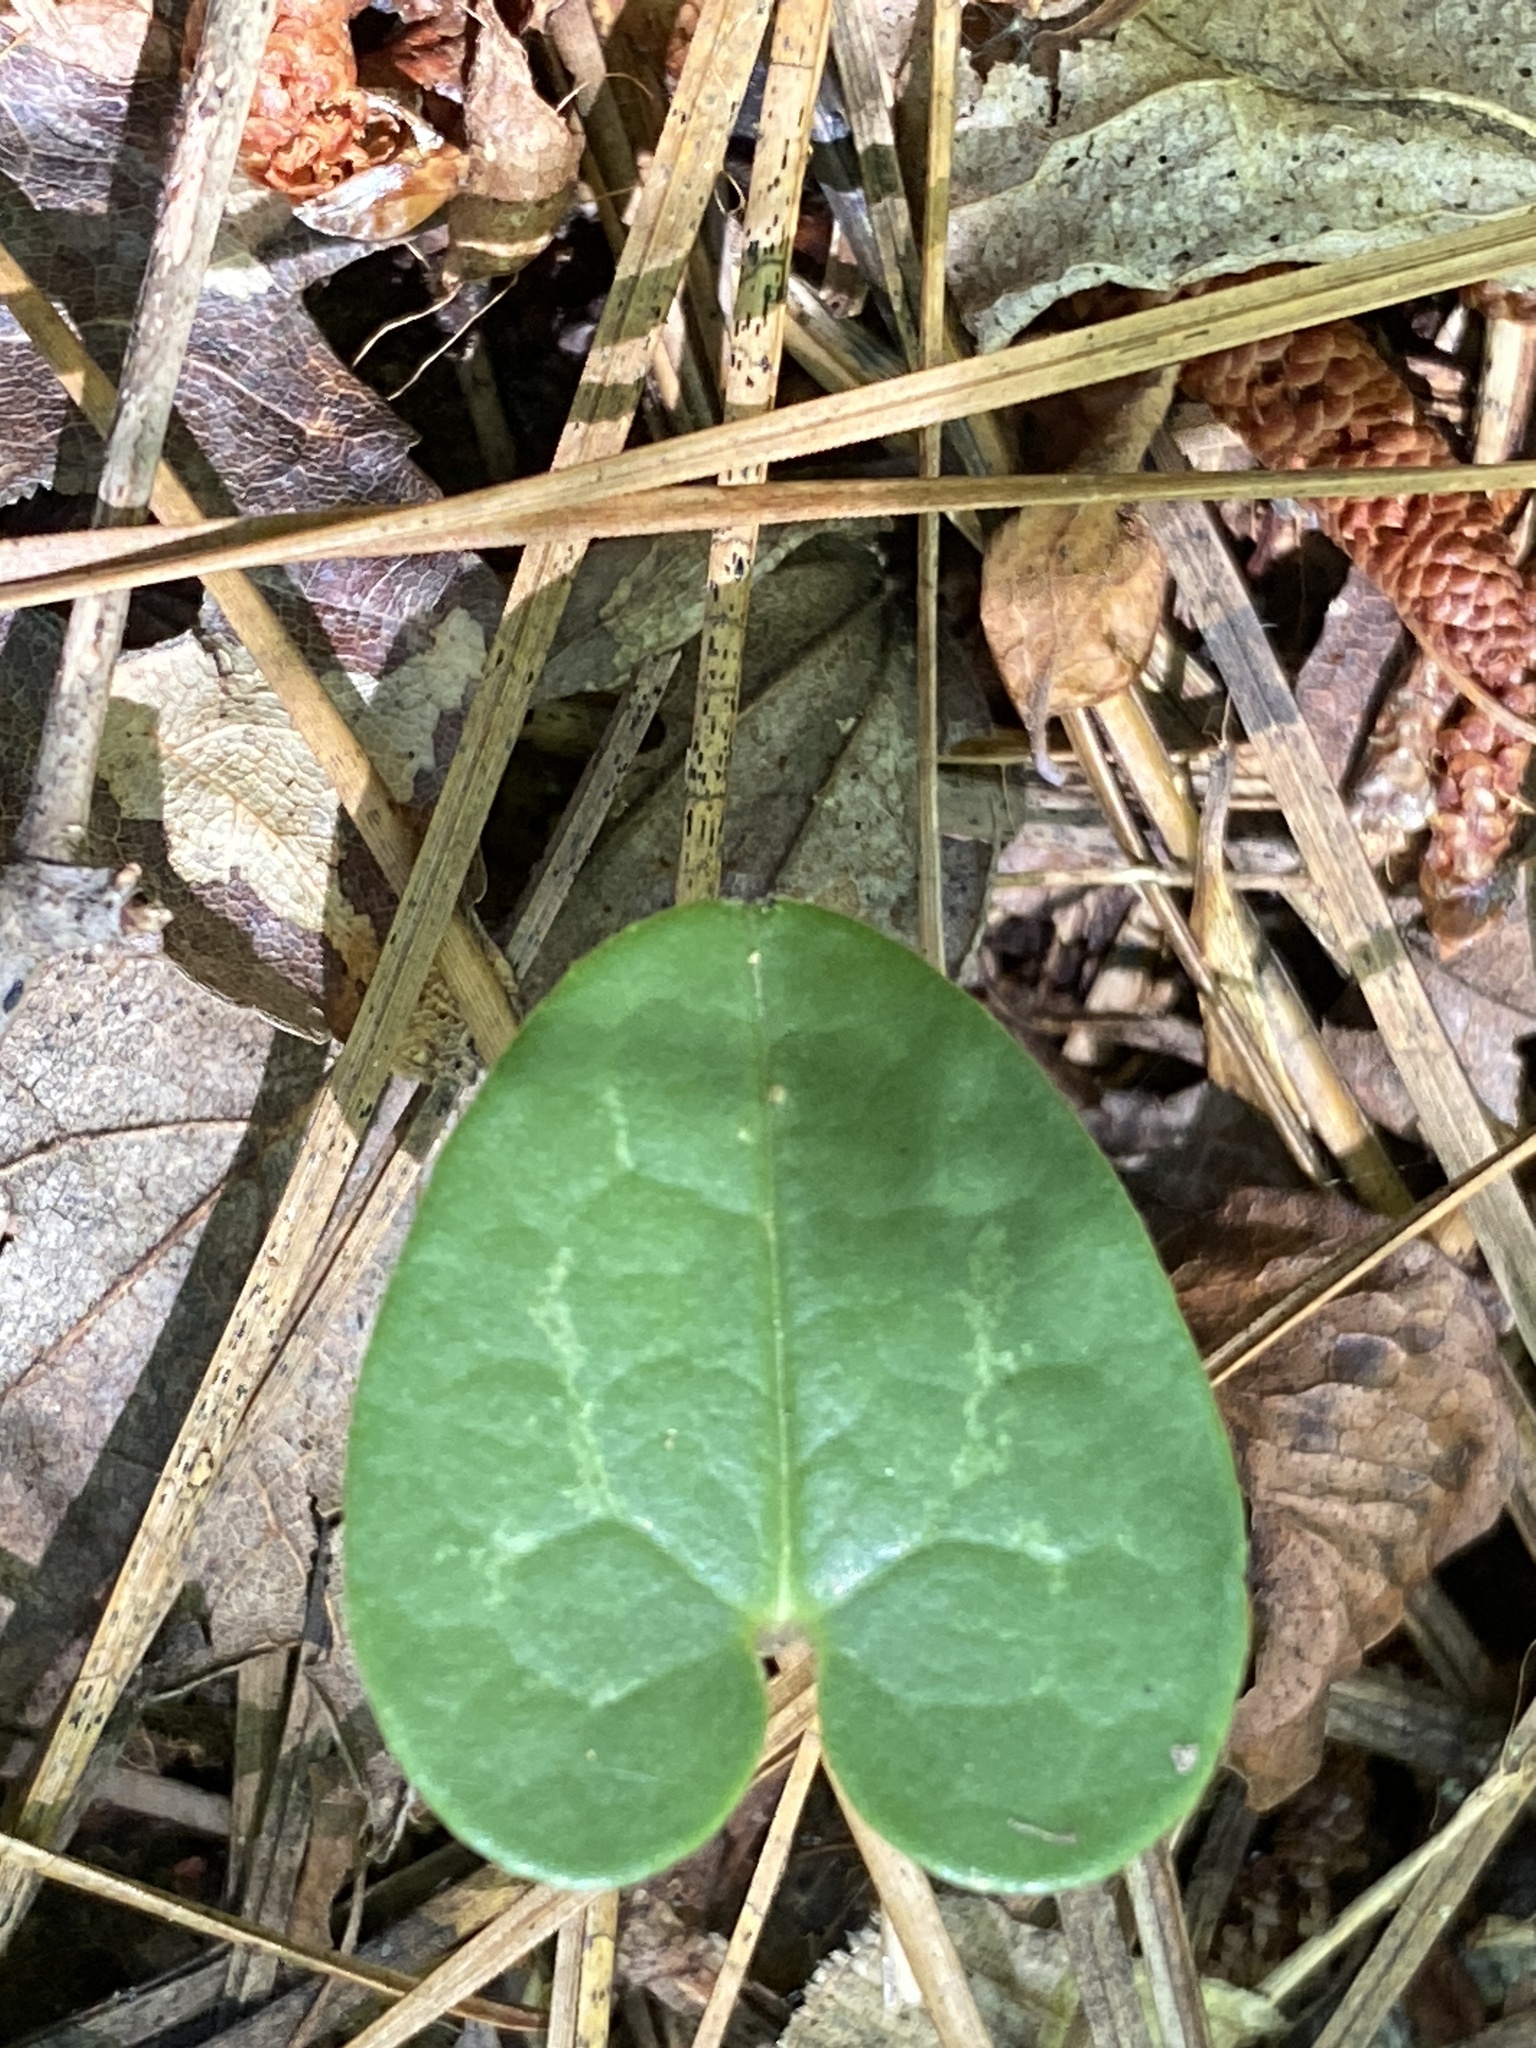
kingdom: Plantae
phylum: Tracheophyta
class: Magnoliopsida
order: Piperales
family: Aristolochiaceae
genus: Hexastylis
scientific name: Hexastylis sorriei
